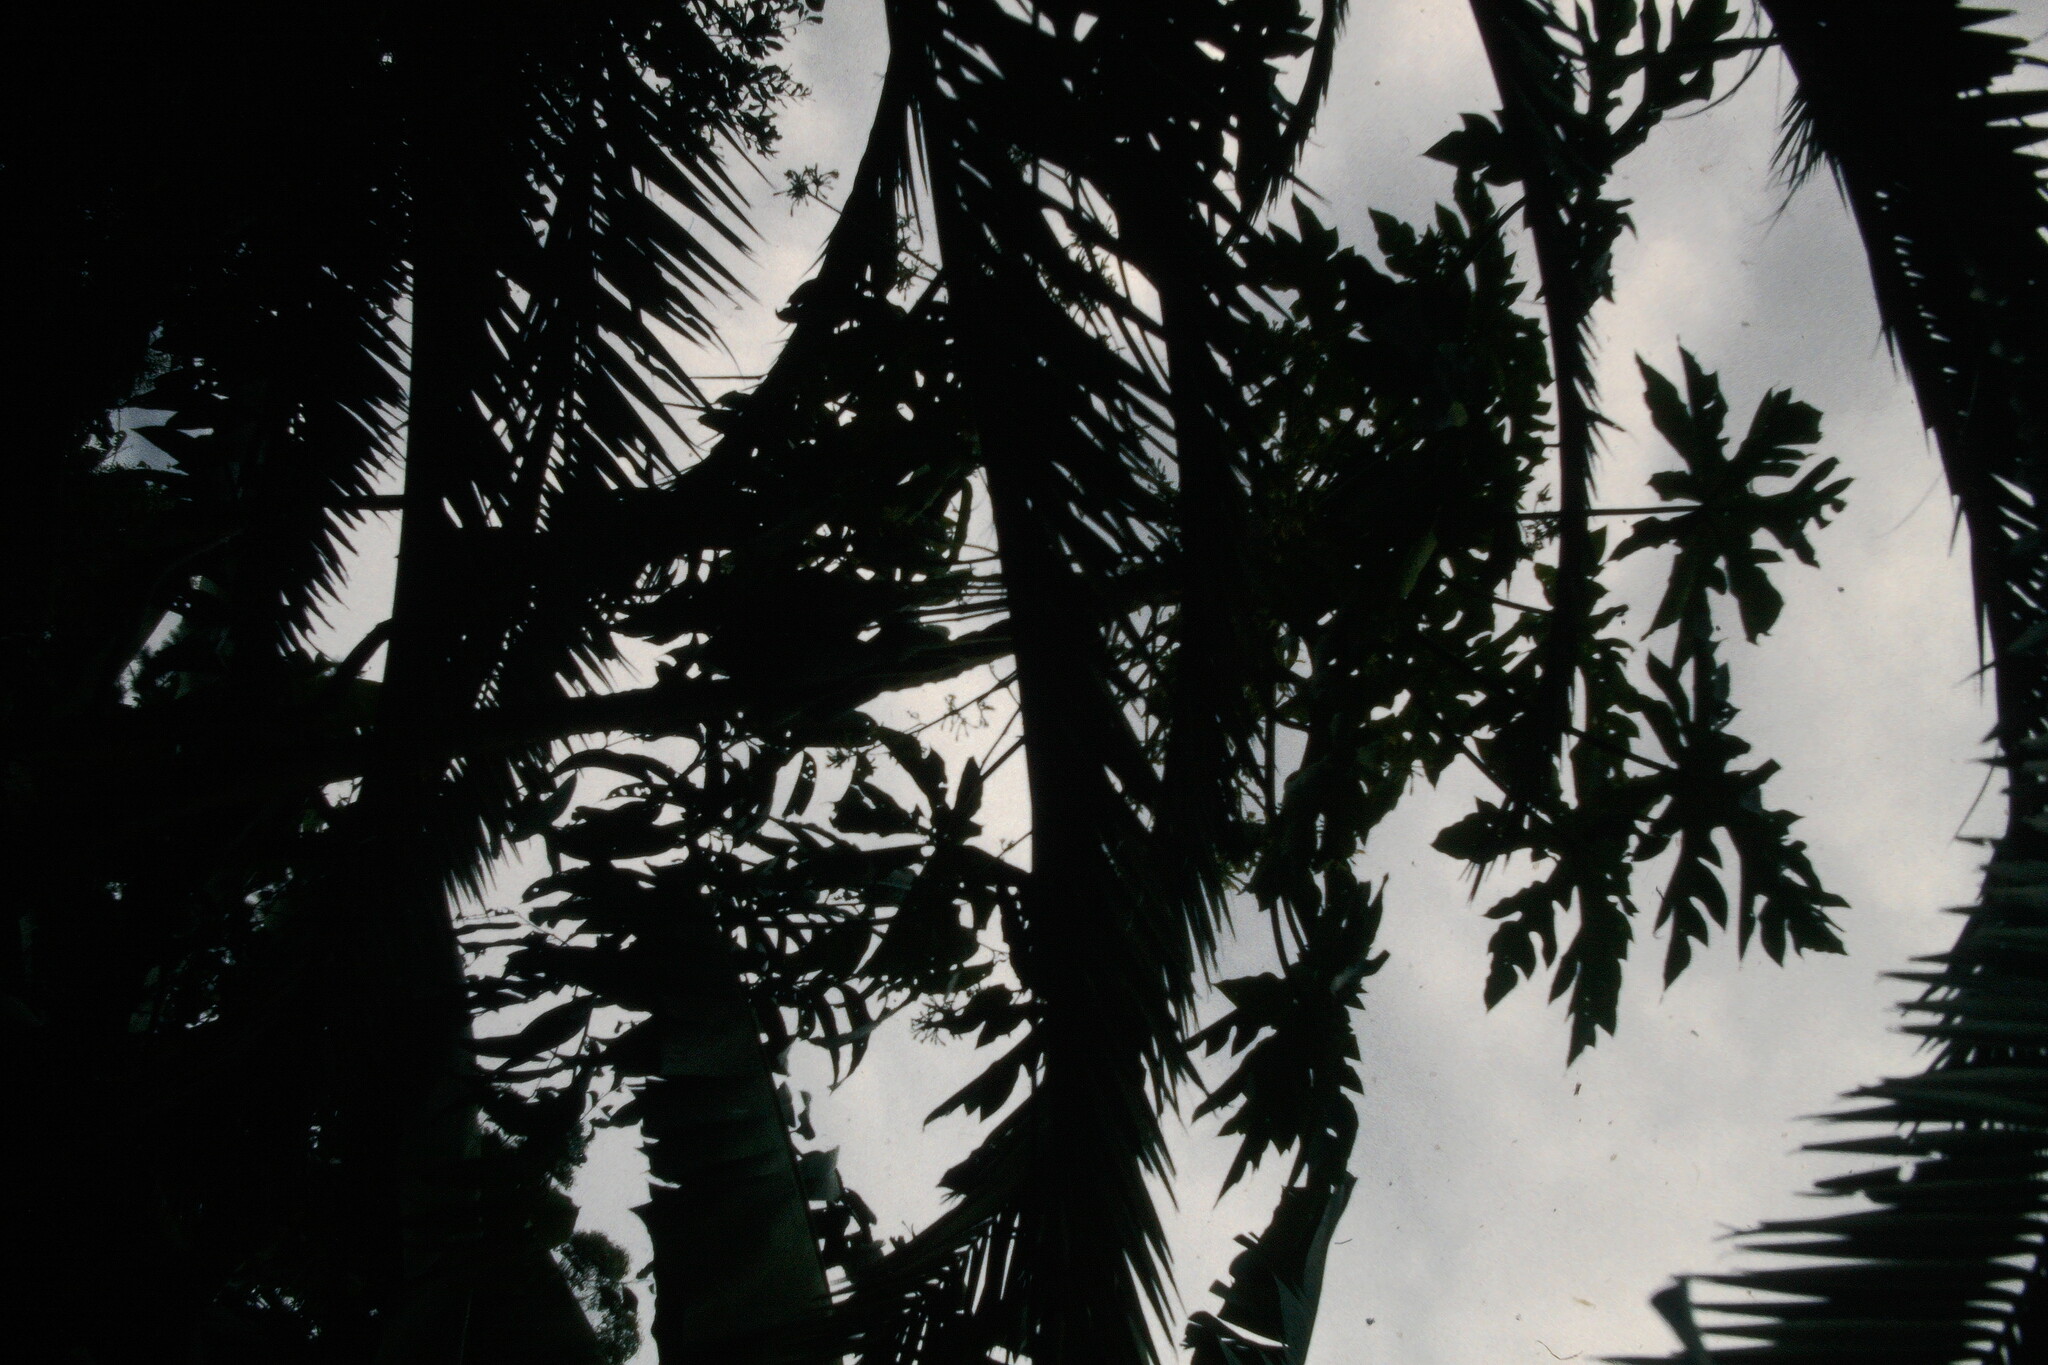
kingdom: Plantae
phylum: Tracheophyta
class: Magnoliopsida
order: Brassicales
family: Caricaceae
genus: Carica
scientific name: Carica papaya
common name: Papaya
